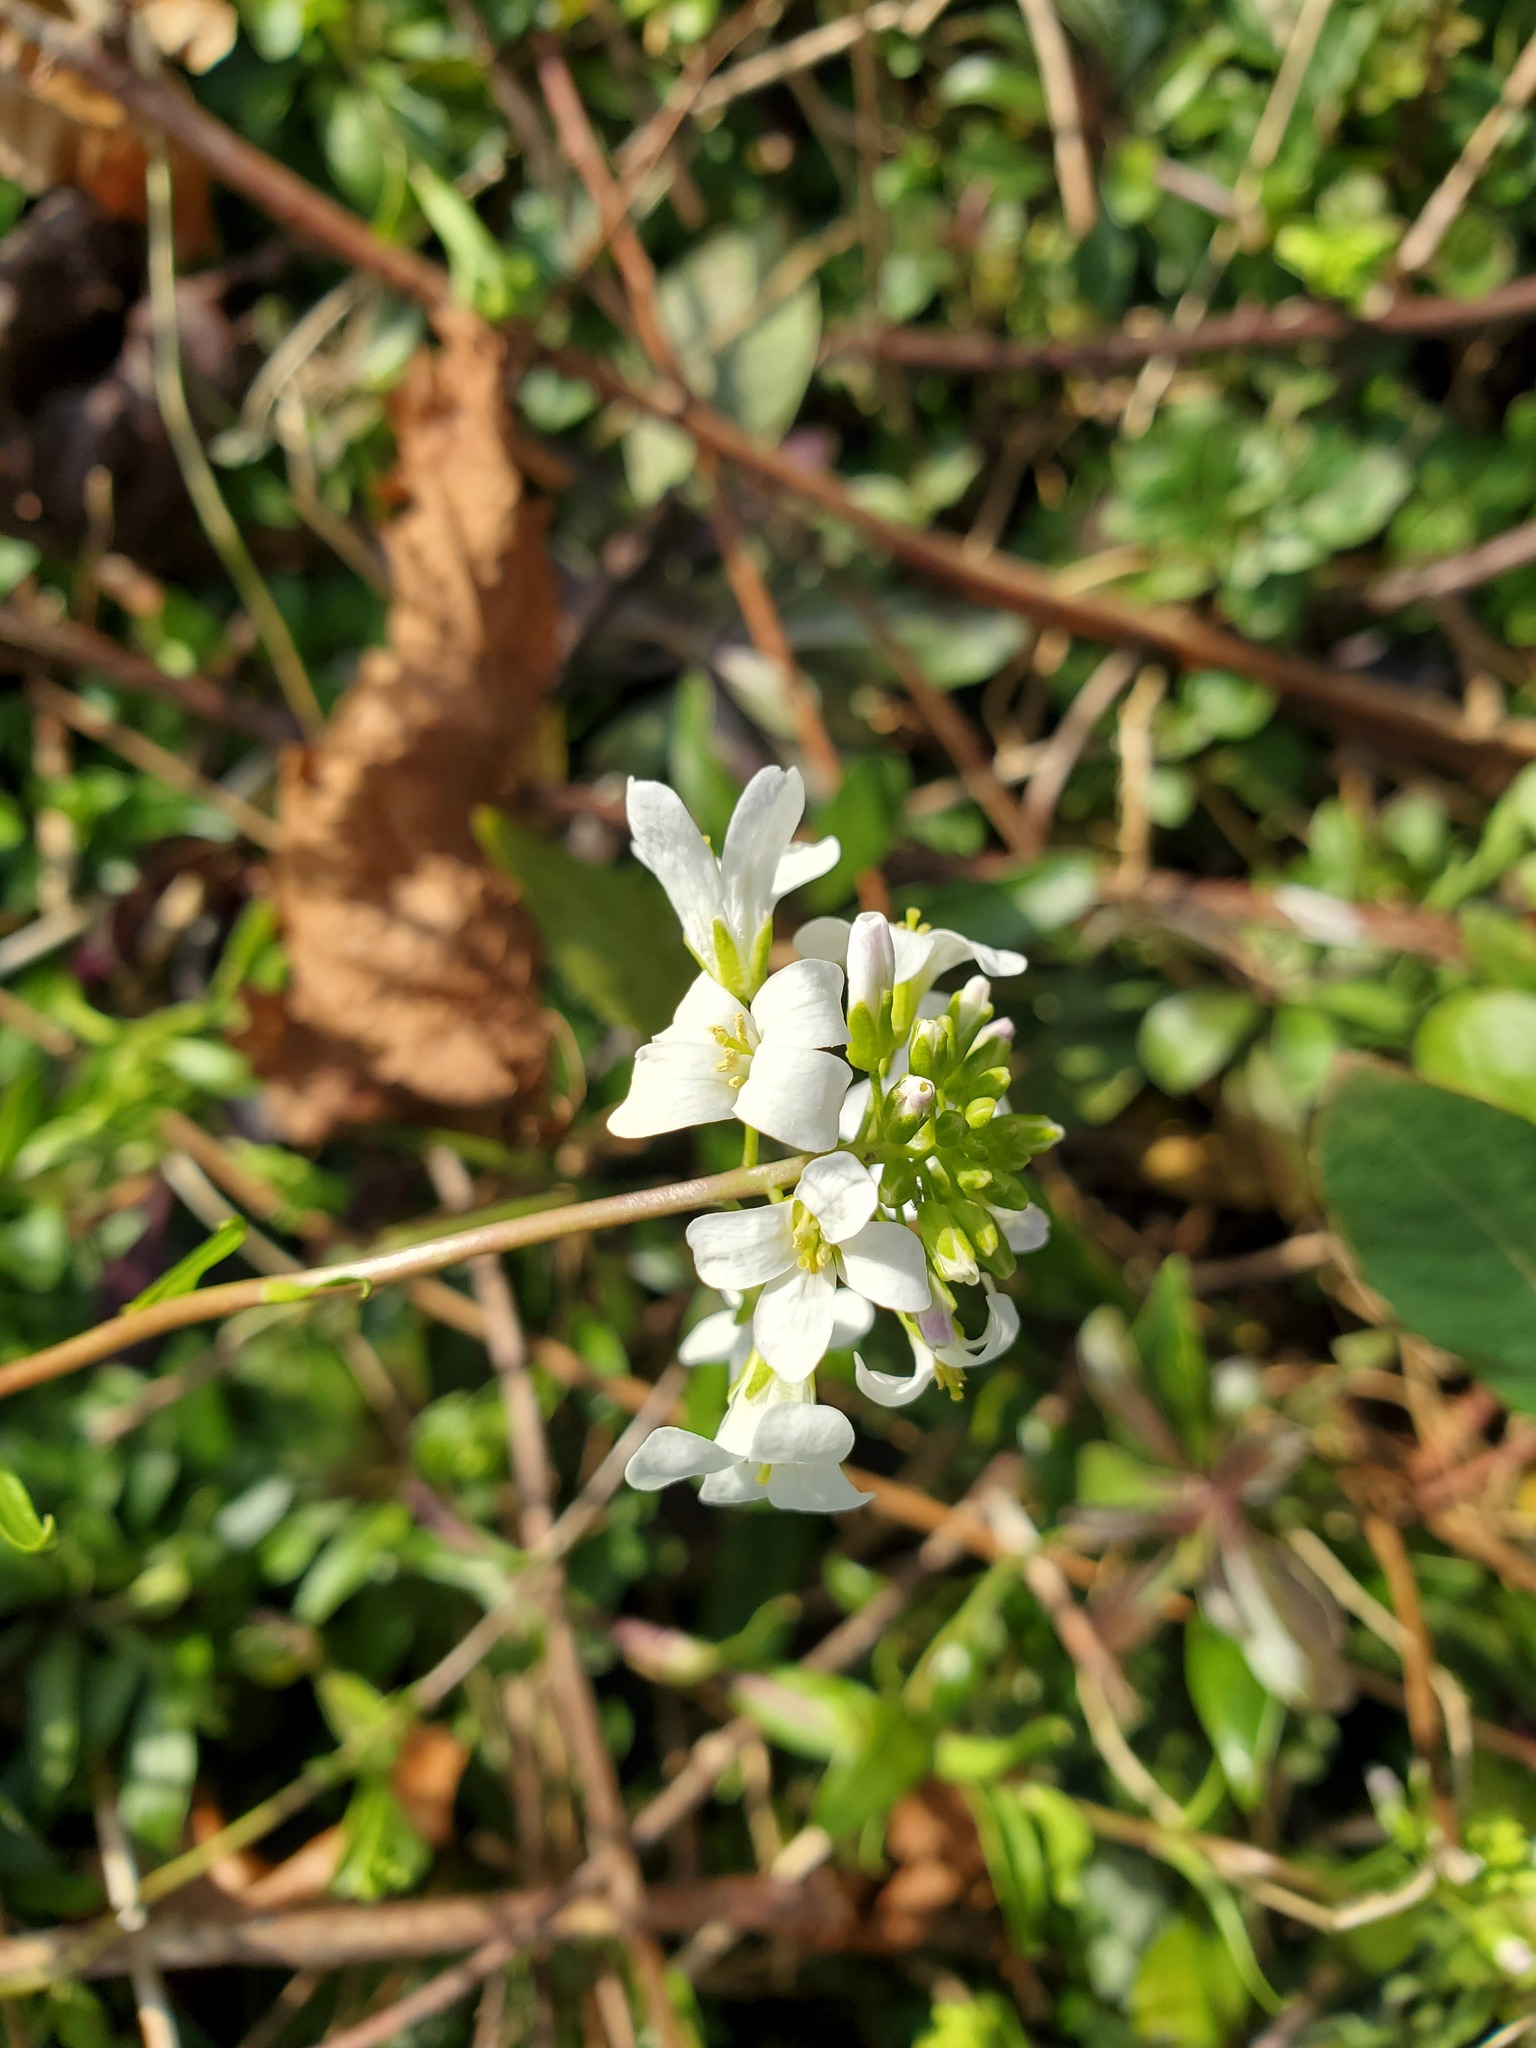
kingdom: Plantae
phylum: Tracheophyta
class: Magnoliopsida
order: Brassicales
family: Brassicaceae
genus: Arabis
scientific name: Arabis procurrens
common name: Running rockcress
